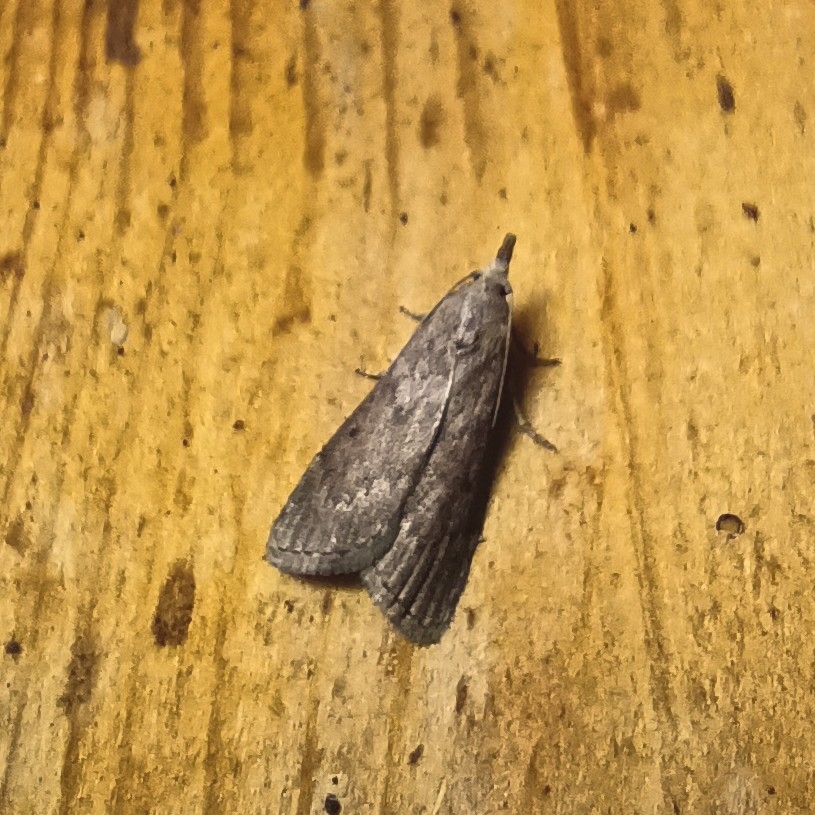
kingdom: Animalia
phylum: Arthropoda
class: Insecta
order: Lepidoptera
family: Pyralidae
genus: Aphomia
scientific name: Aphomia sociella
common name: Bee moth
